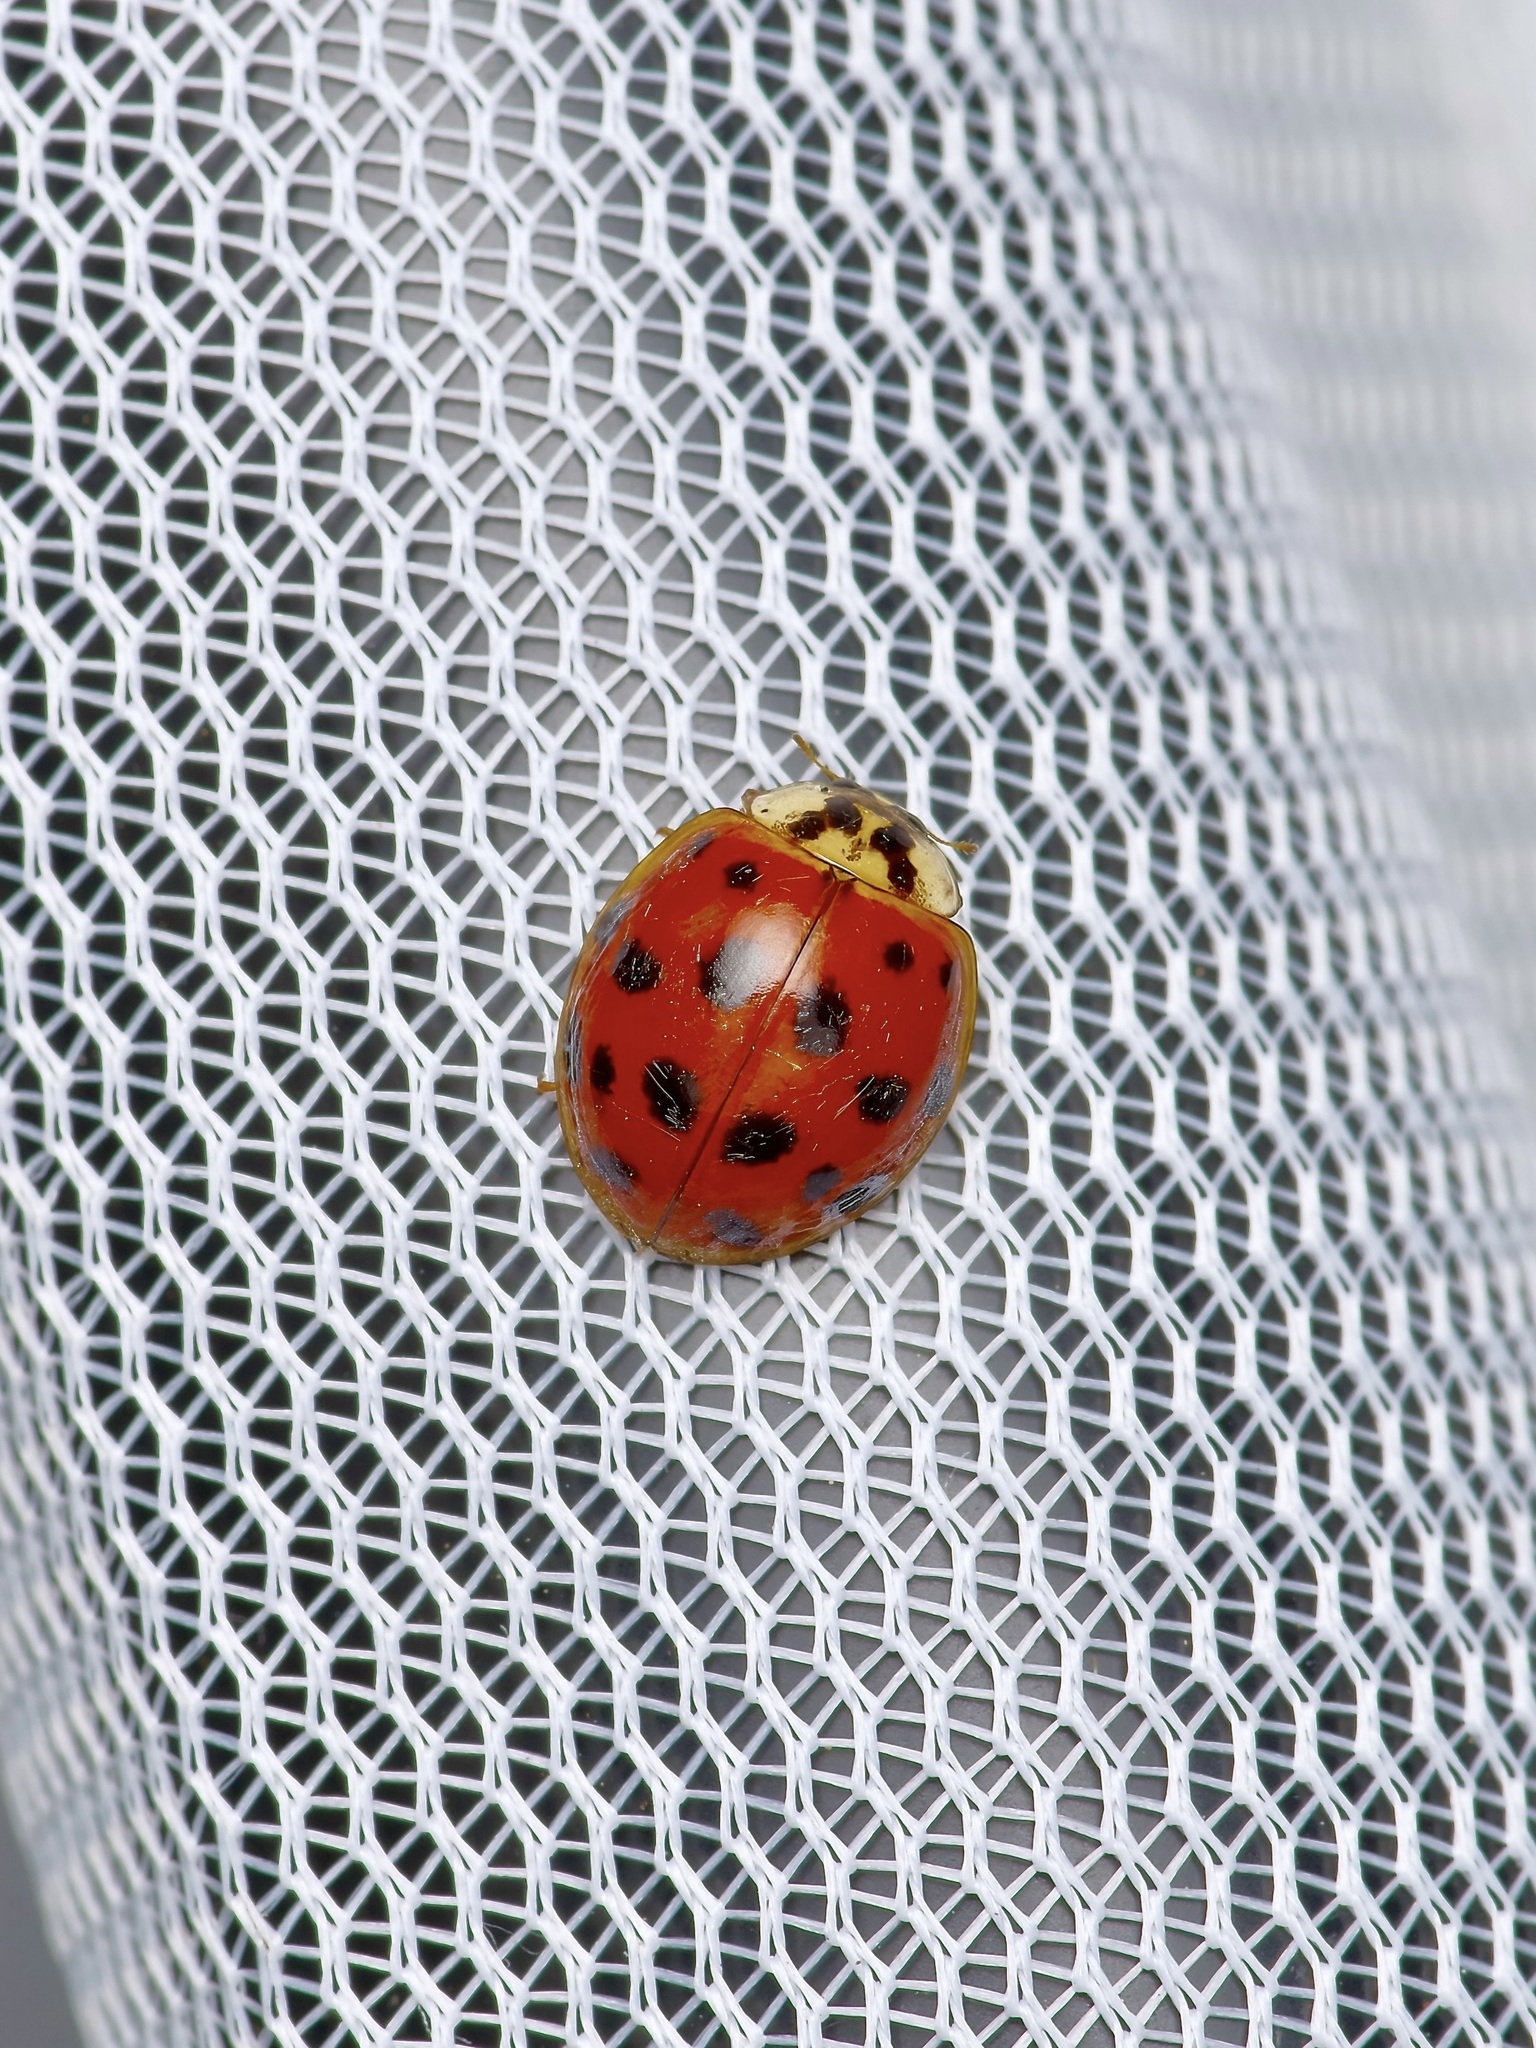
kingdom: Animalia
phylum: Arthropoda
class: Insecta
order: Coleoptera
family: Coccinellidae
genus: Harmonia
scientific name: Harmonia axyridis
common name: Harlequin ladybird
